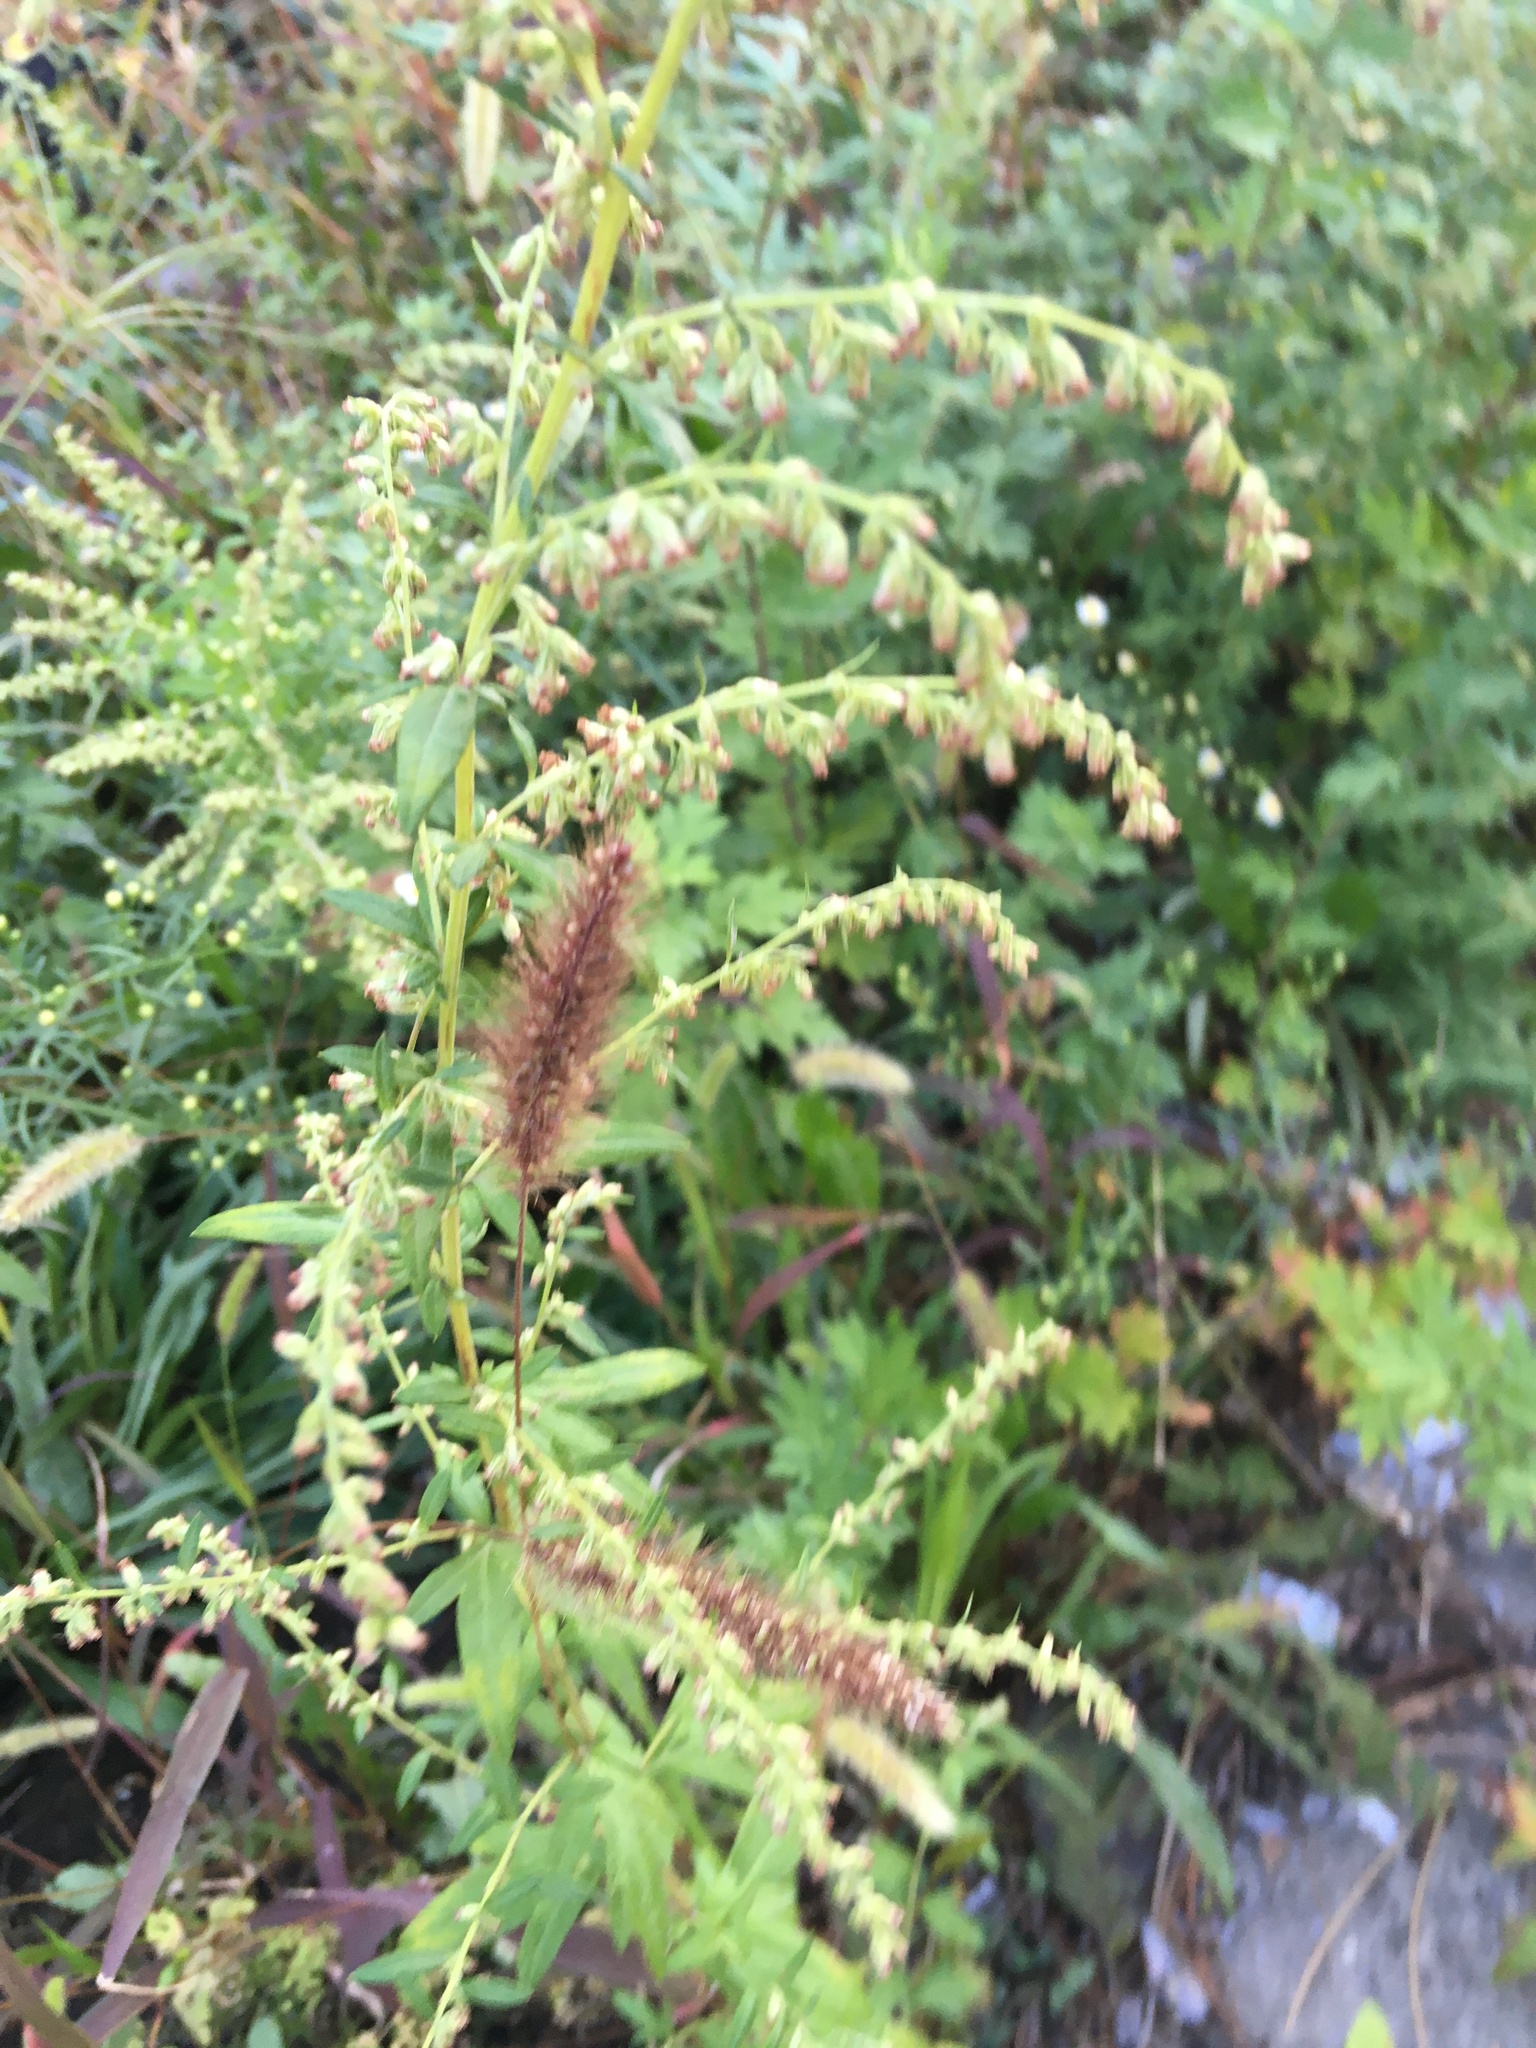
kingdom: Plantae
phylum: Tracheophyta
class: Magnoliopsida
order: Asterales
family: Asteraceae
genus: Artemisia
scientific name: Artemisia vulgaris
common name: Mugwort
